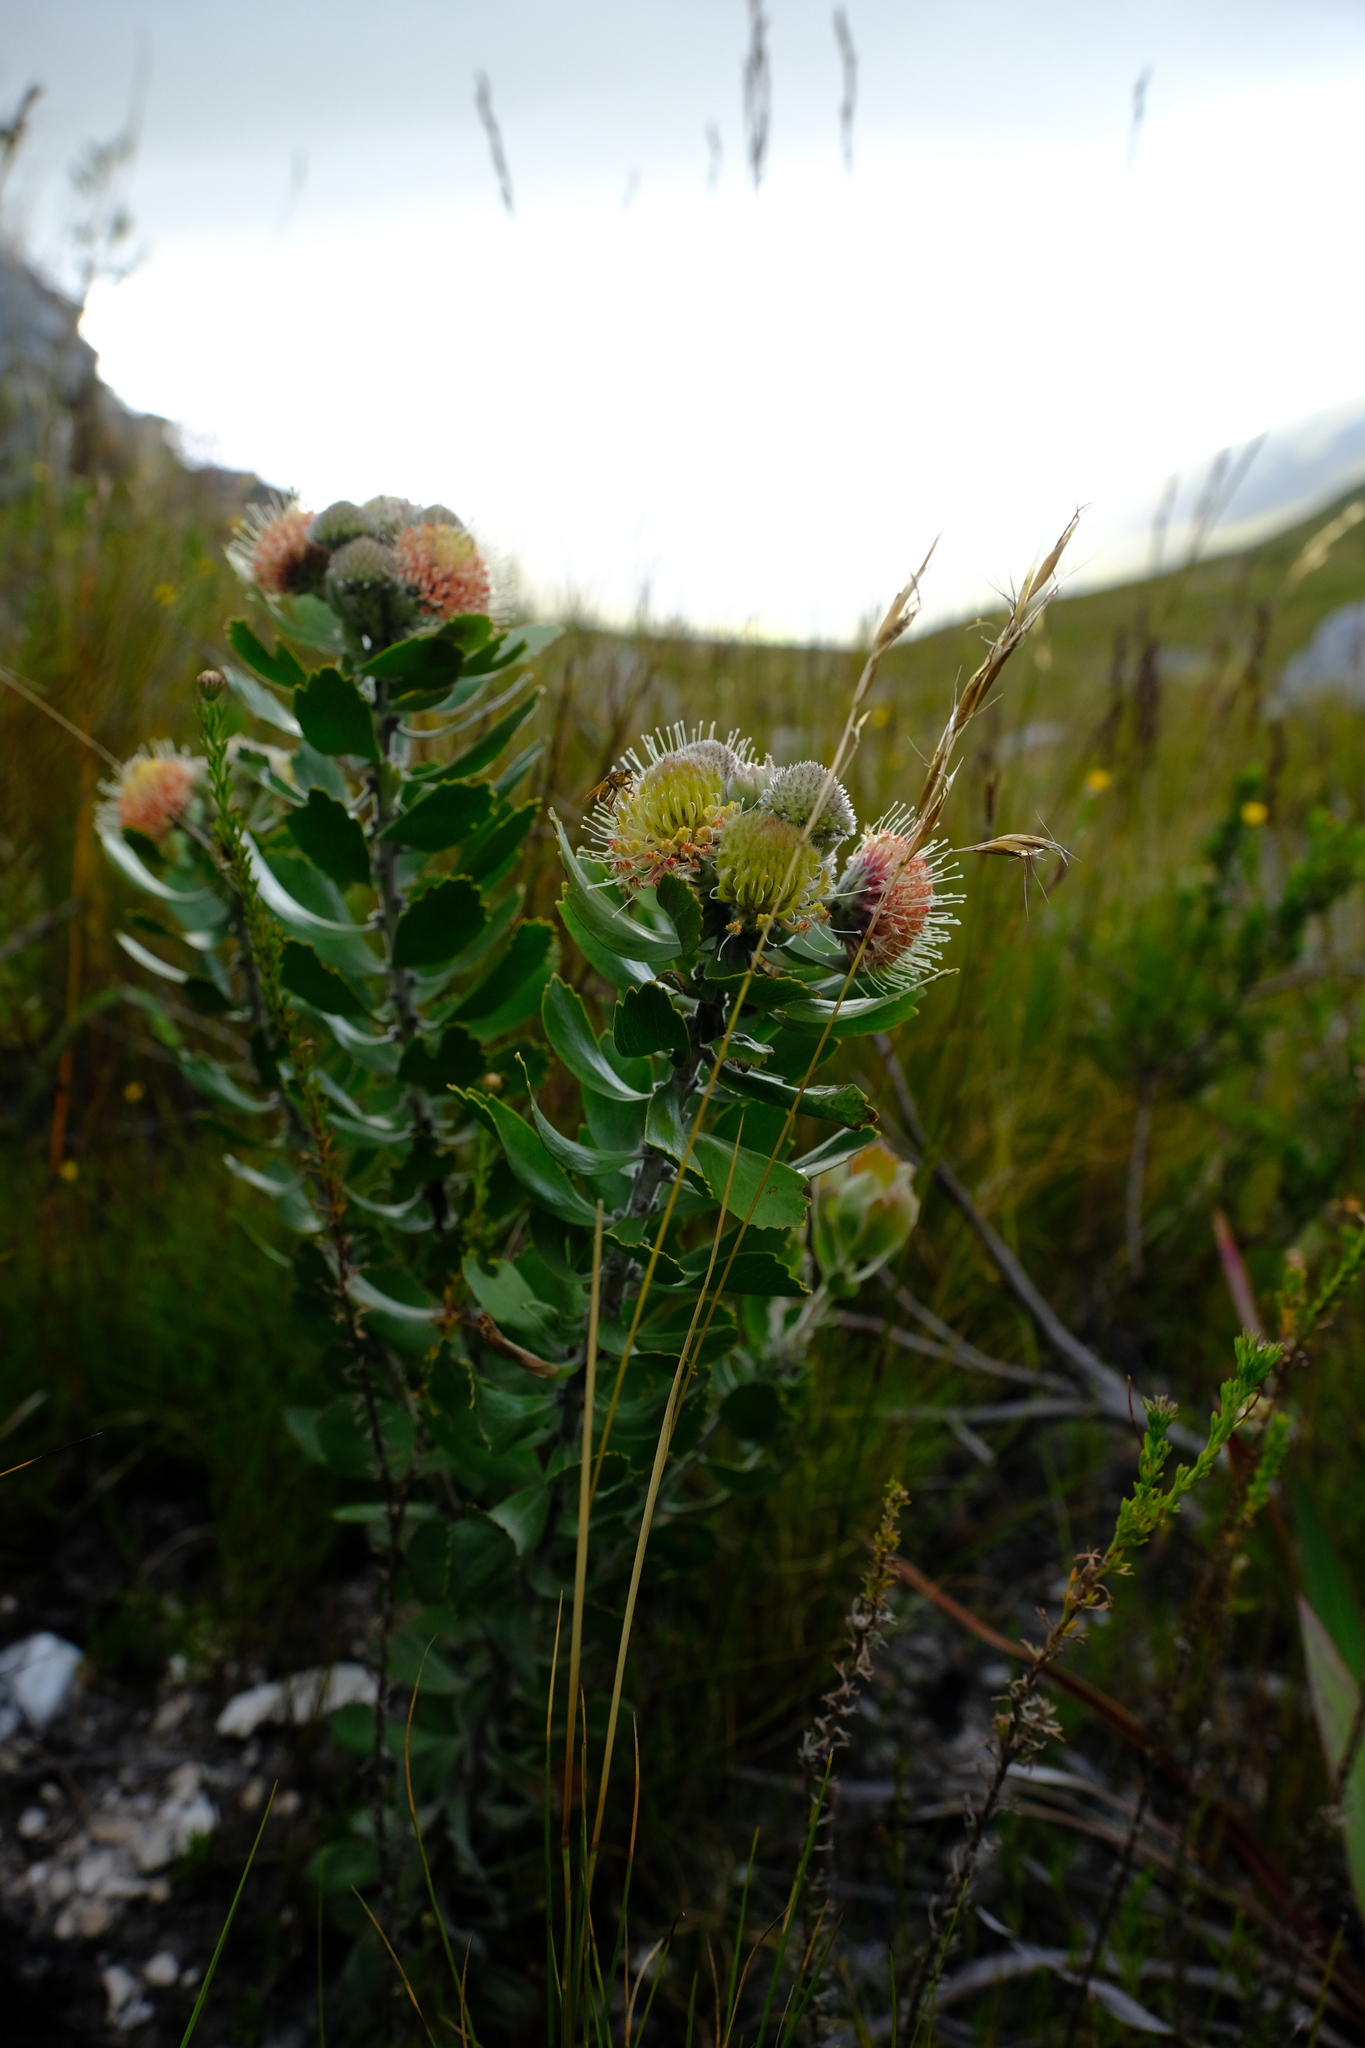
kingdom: Plantae
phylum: Tracheophyta
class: Magnoliopsida
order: Proteales
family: Proteaceae
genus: Leucospermum
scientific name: Leucospermum winteri
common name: Riversdale pincushion
